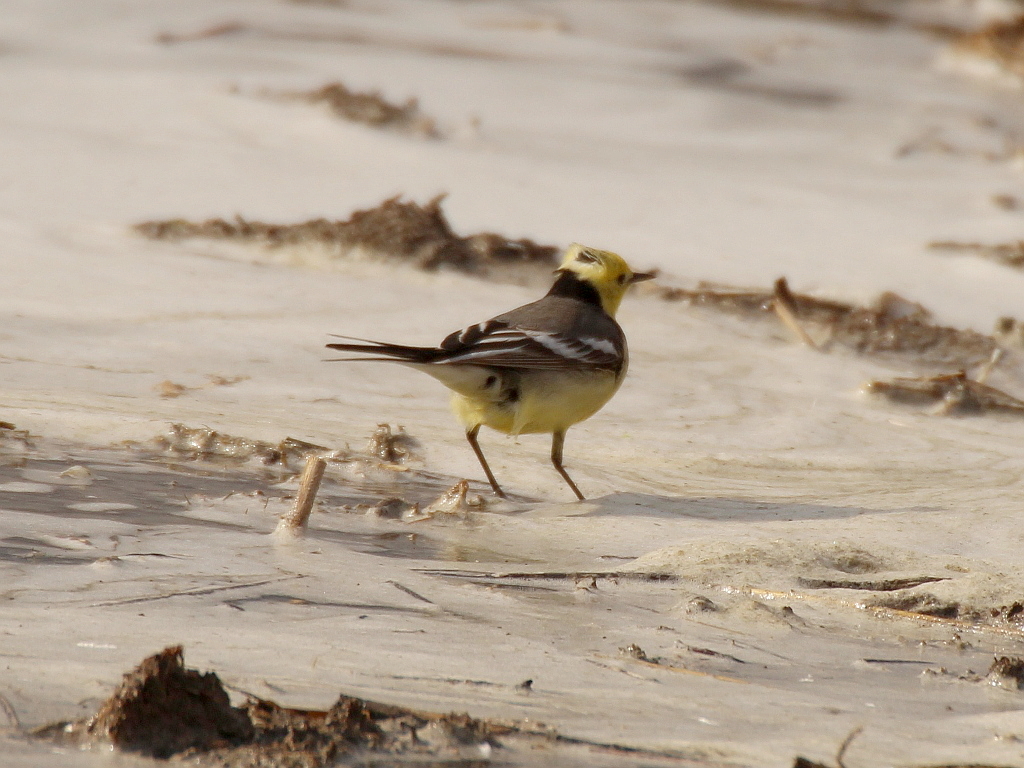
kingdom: Animalia
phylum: Chordata
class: Aves
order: Passeriformes
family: Motacillidae
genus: Motacilla
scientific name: Motacilla citreola
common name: Citrine wagtail
